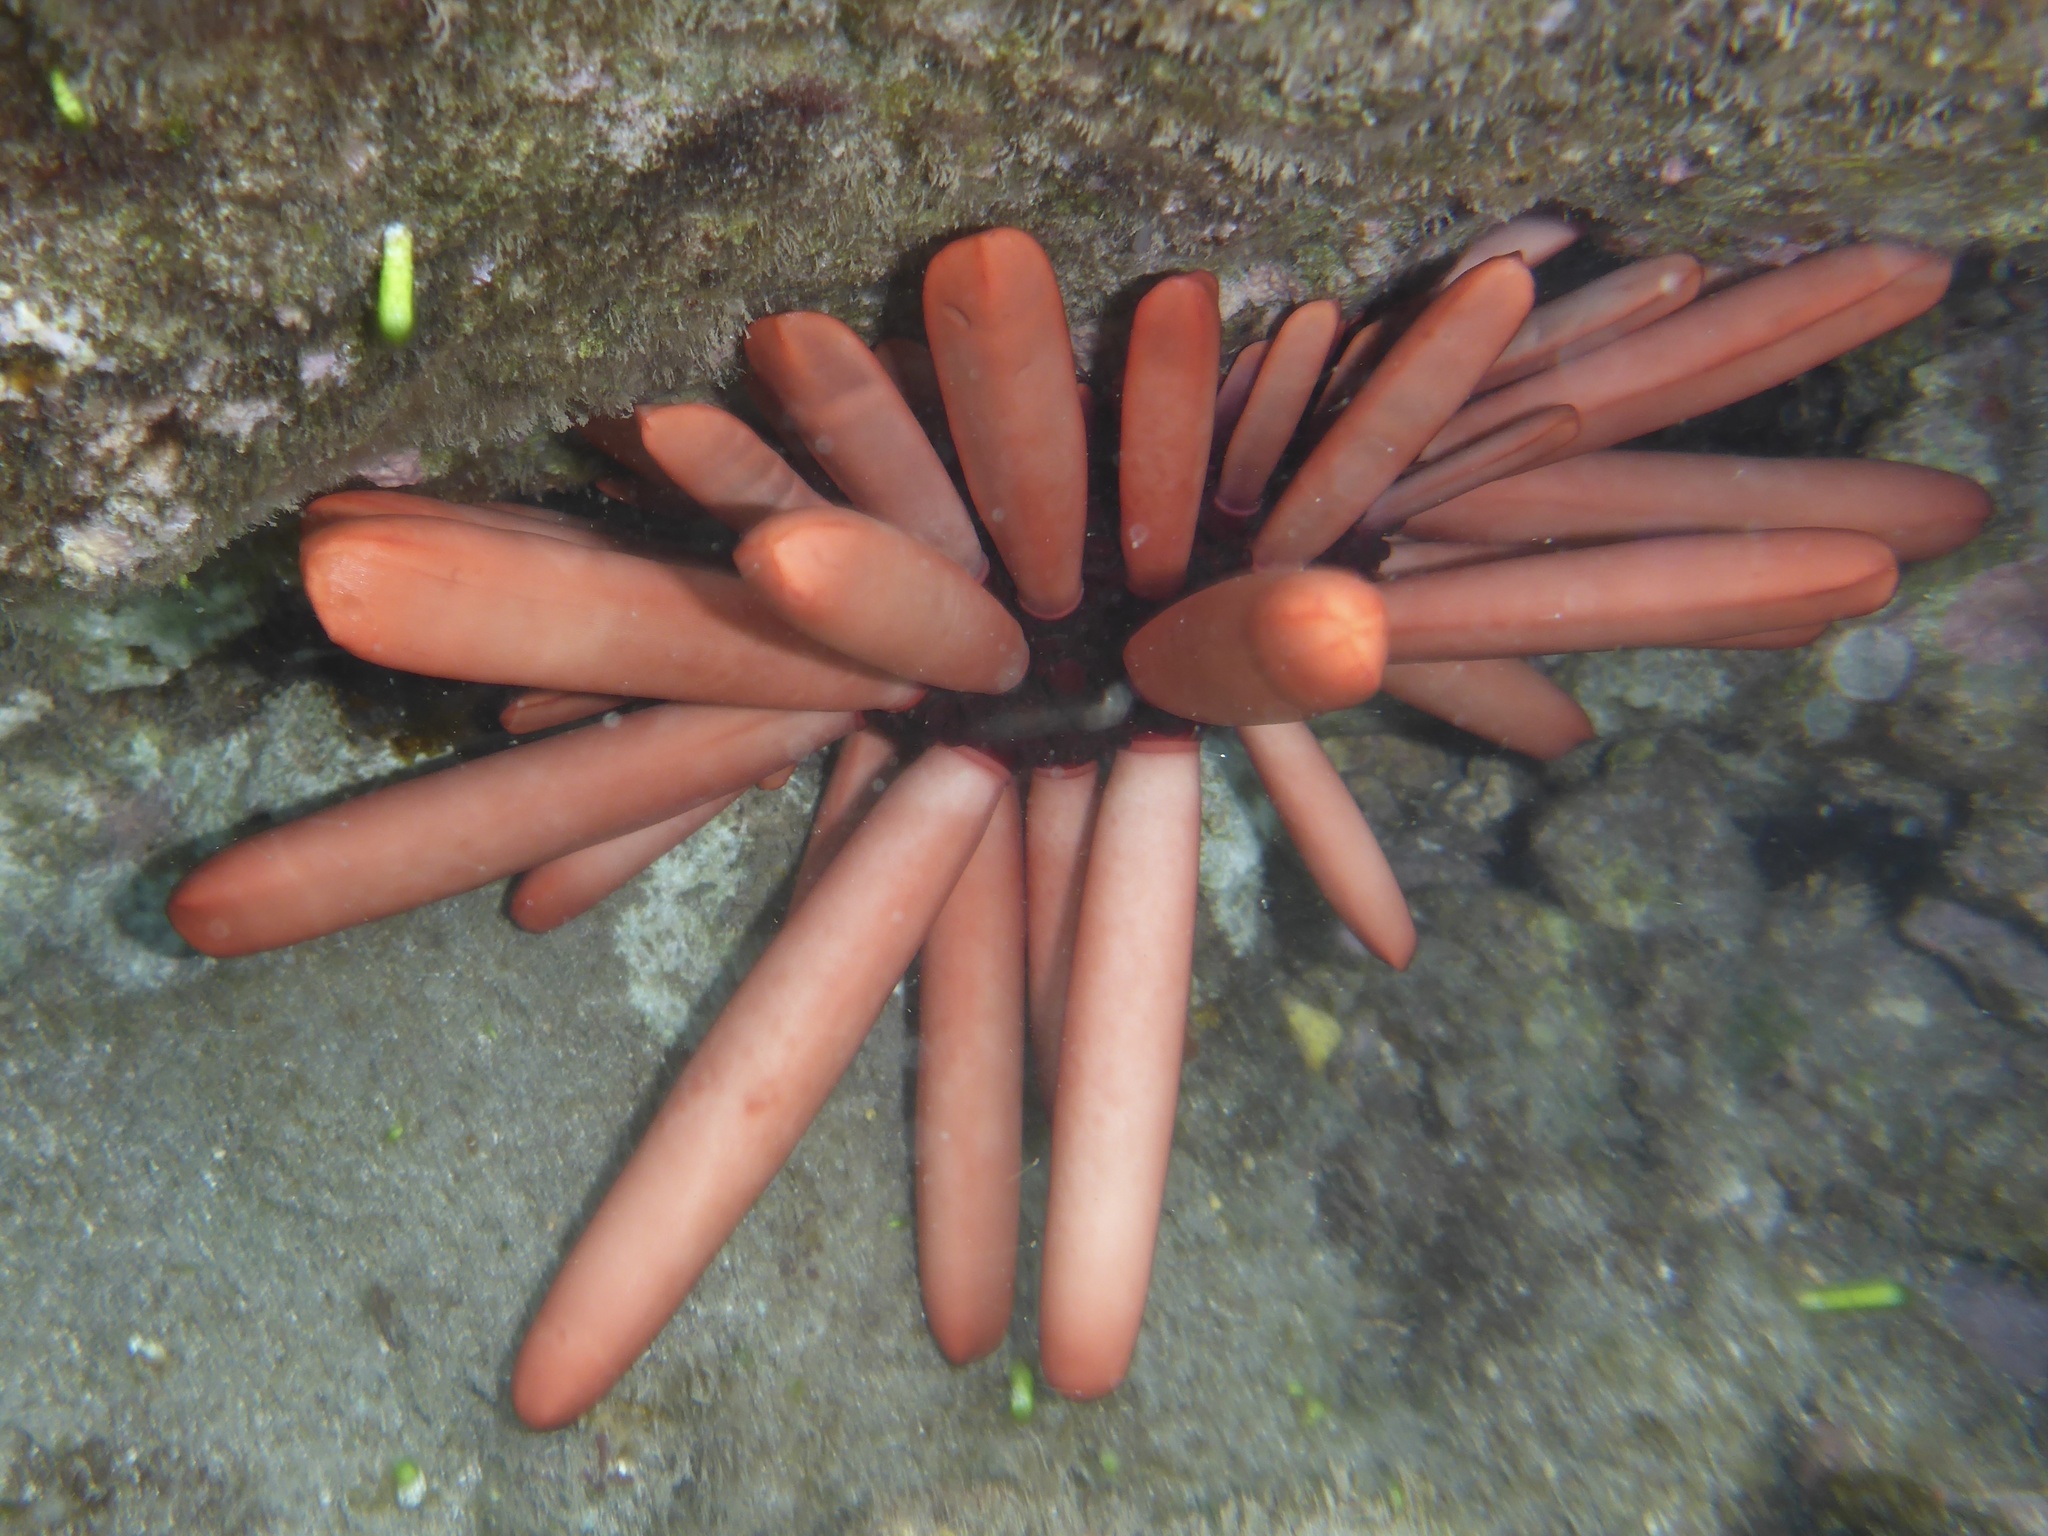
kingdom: Animalia
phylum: Echinodermata
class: Echinoidea
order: Camarodonta
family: Echinometridae
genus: Heterocentrotus
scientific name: Heterocentrotus mamillatus
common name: Slate pencil urchin
